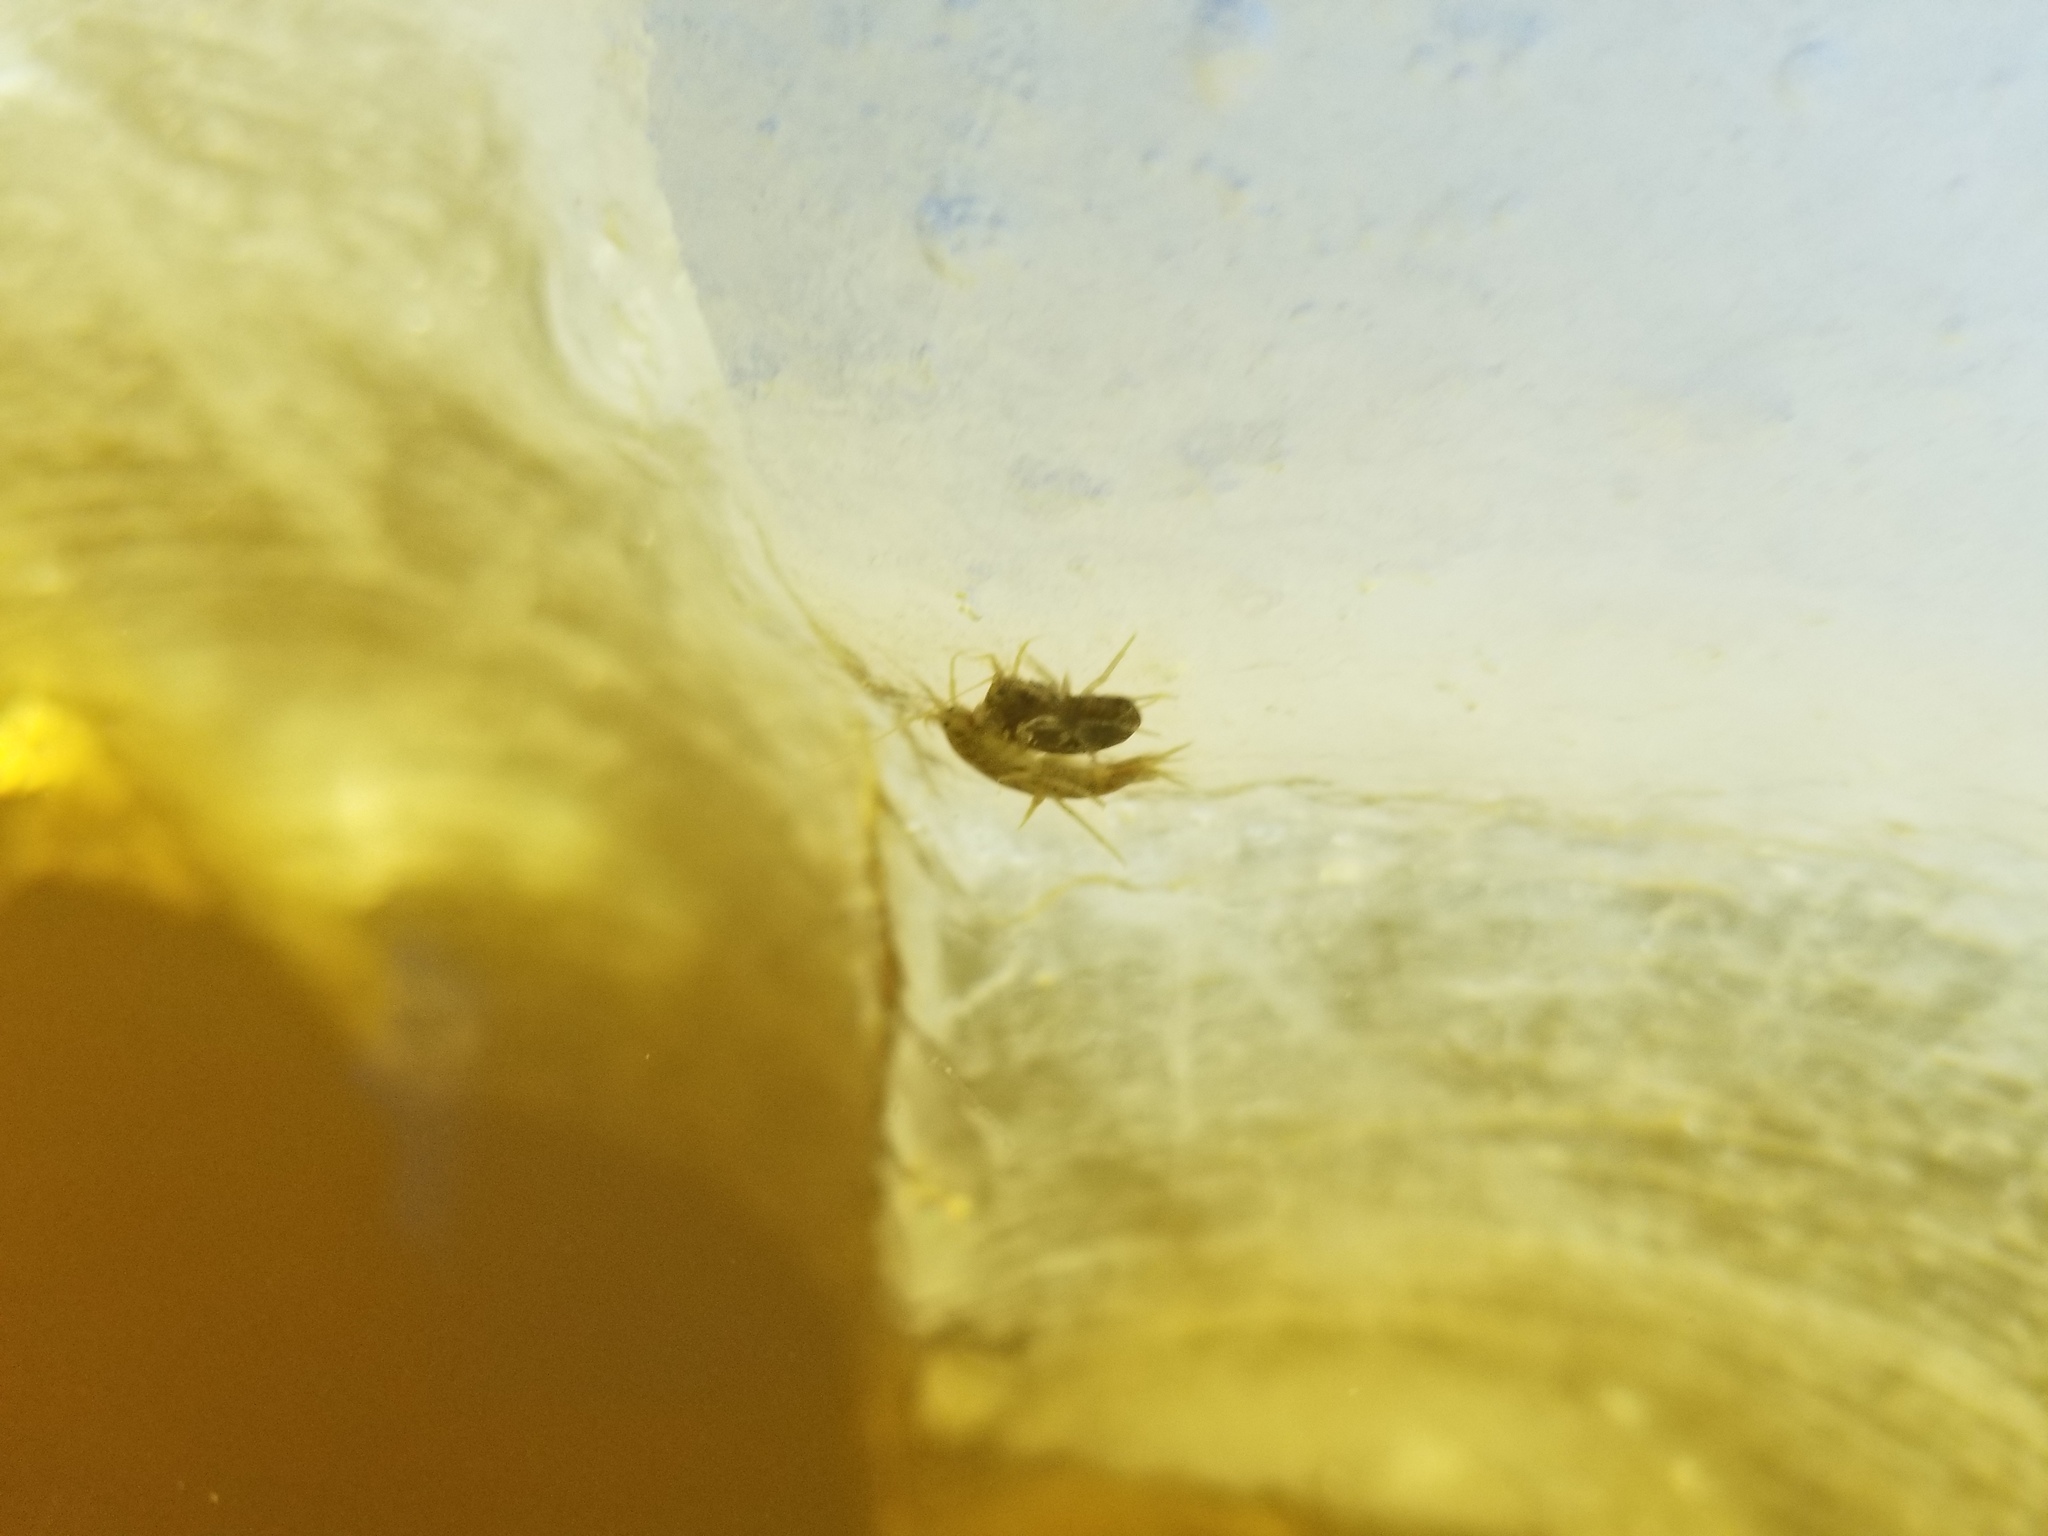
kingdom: Animalia
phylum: Arthropoda
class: Malacostraca
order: Amphipoda
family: Gammaridae
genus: Gammarus
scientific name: Gammarus lacustris
